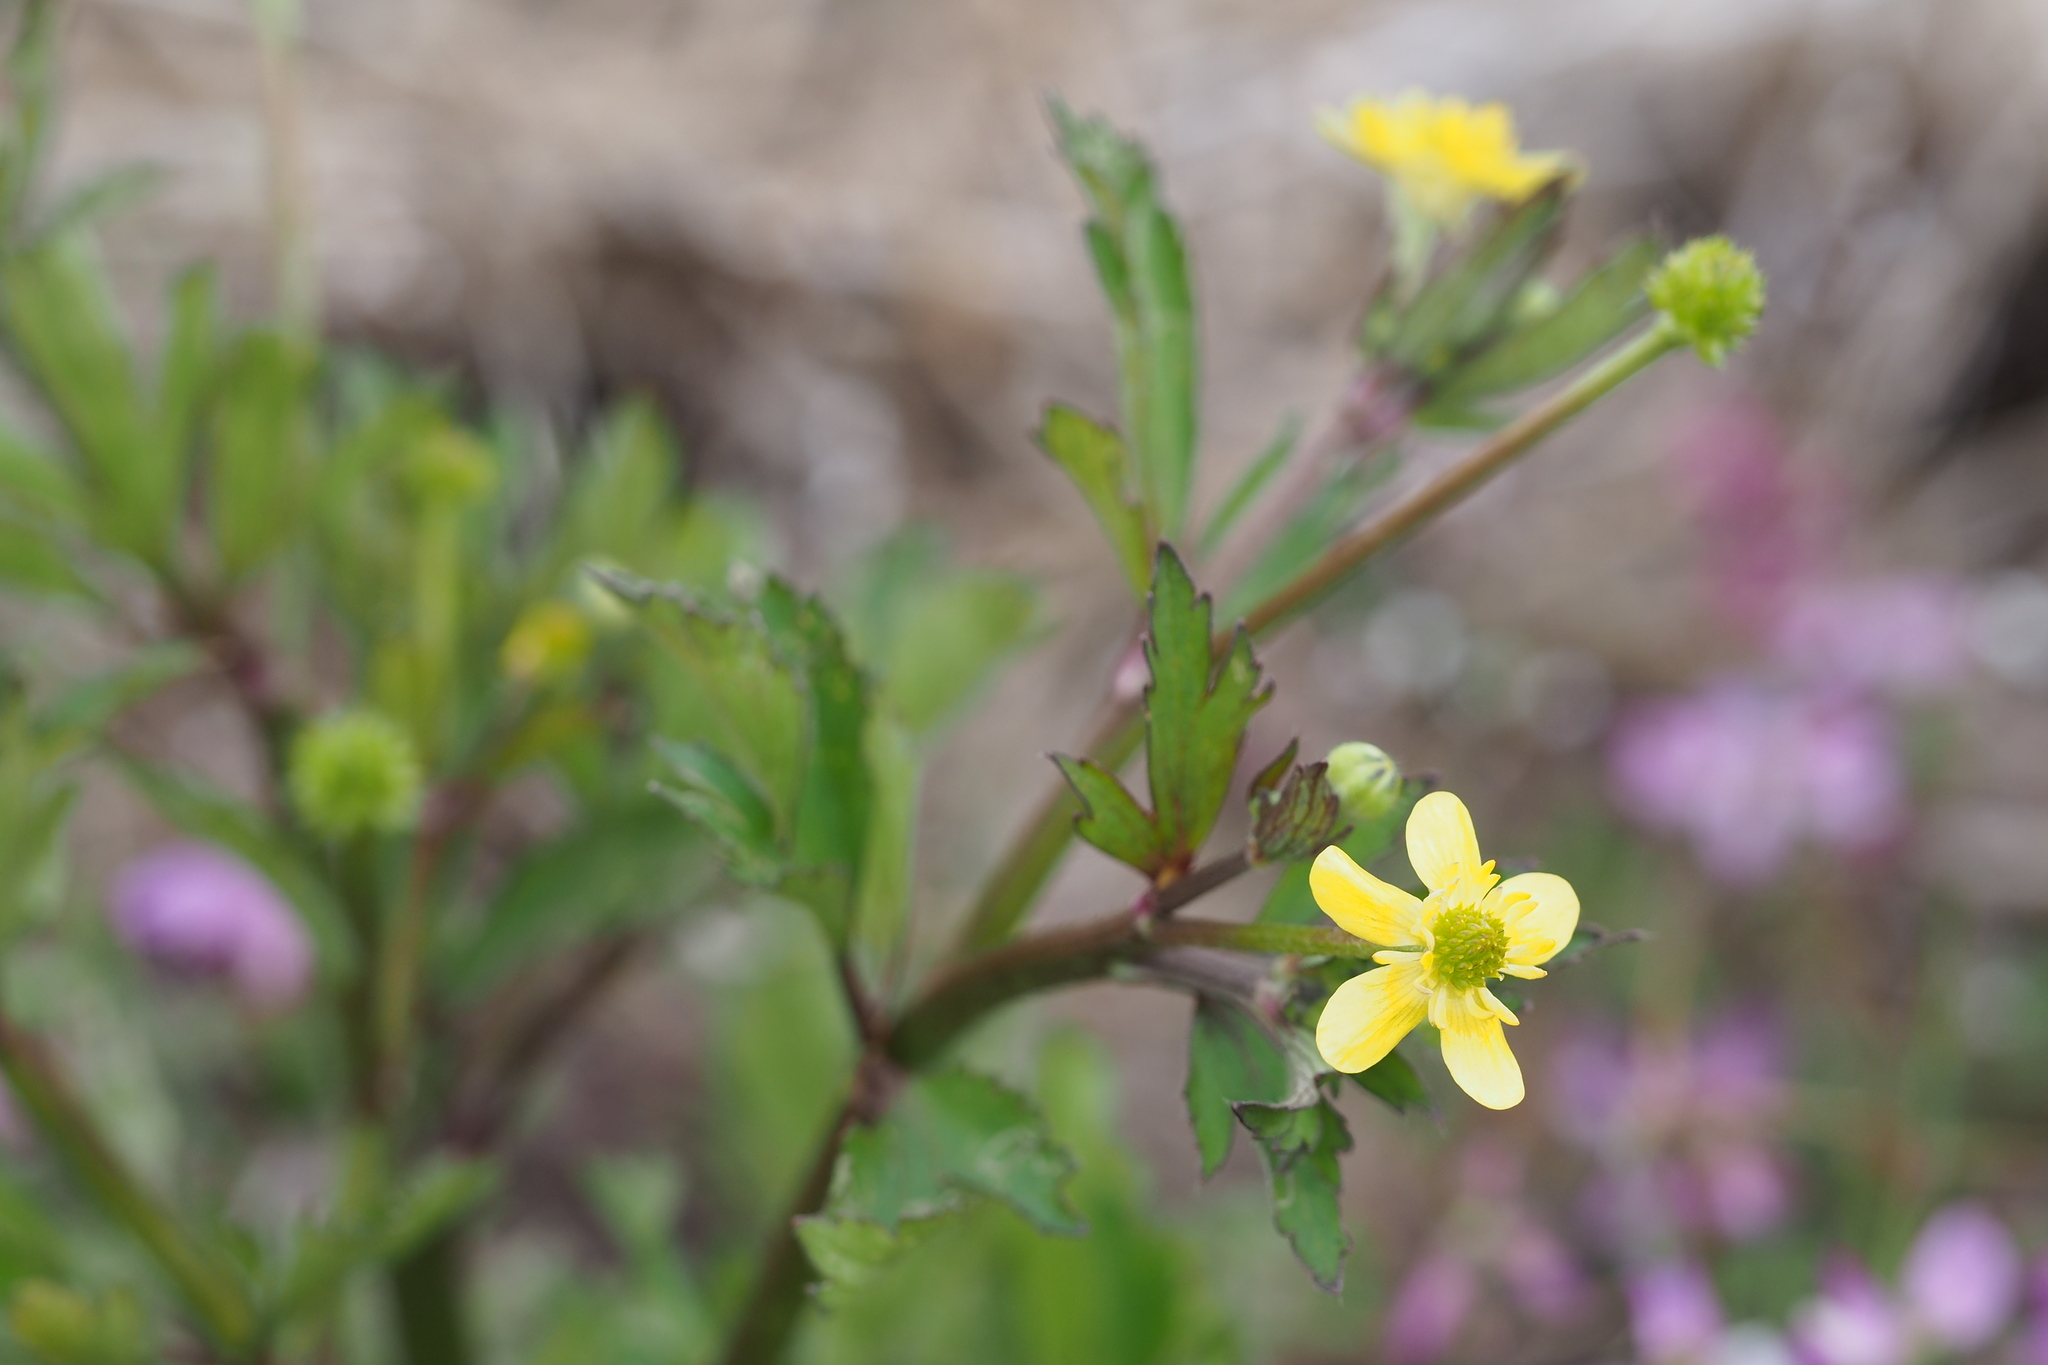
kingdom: Plantae
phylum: Tracheophyta
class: Magnoliopsida
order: Ranunculales
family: Ranunculaceae
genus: Ranunculus
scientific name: Ranunculus sceleratus
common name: Celery-leaved buttercup
